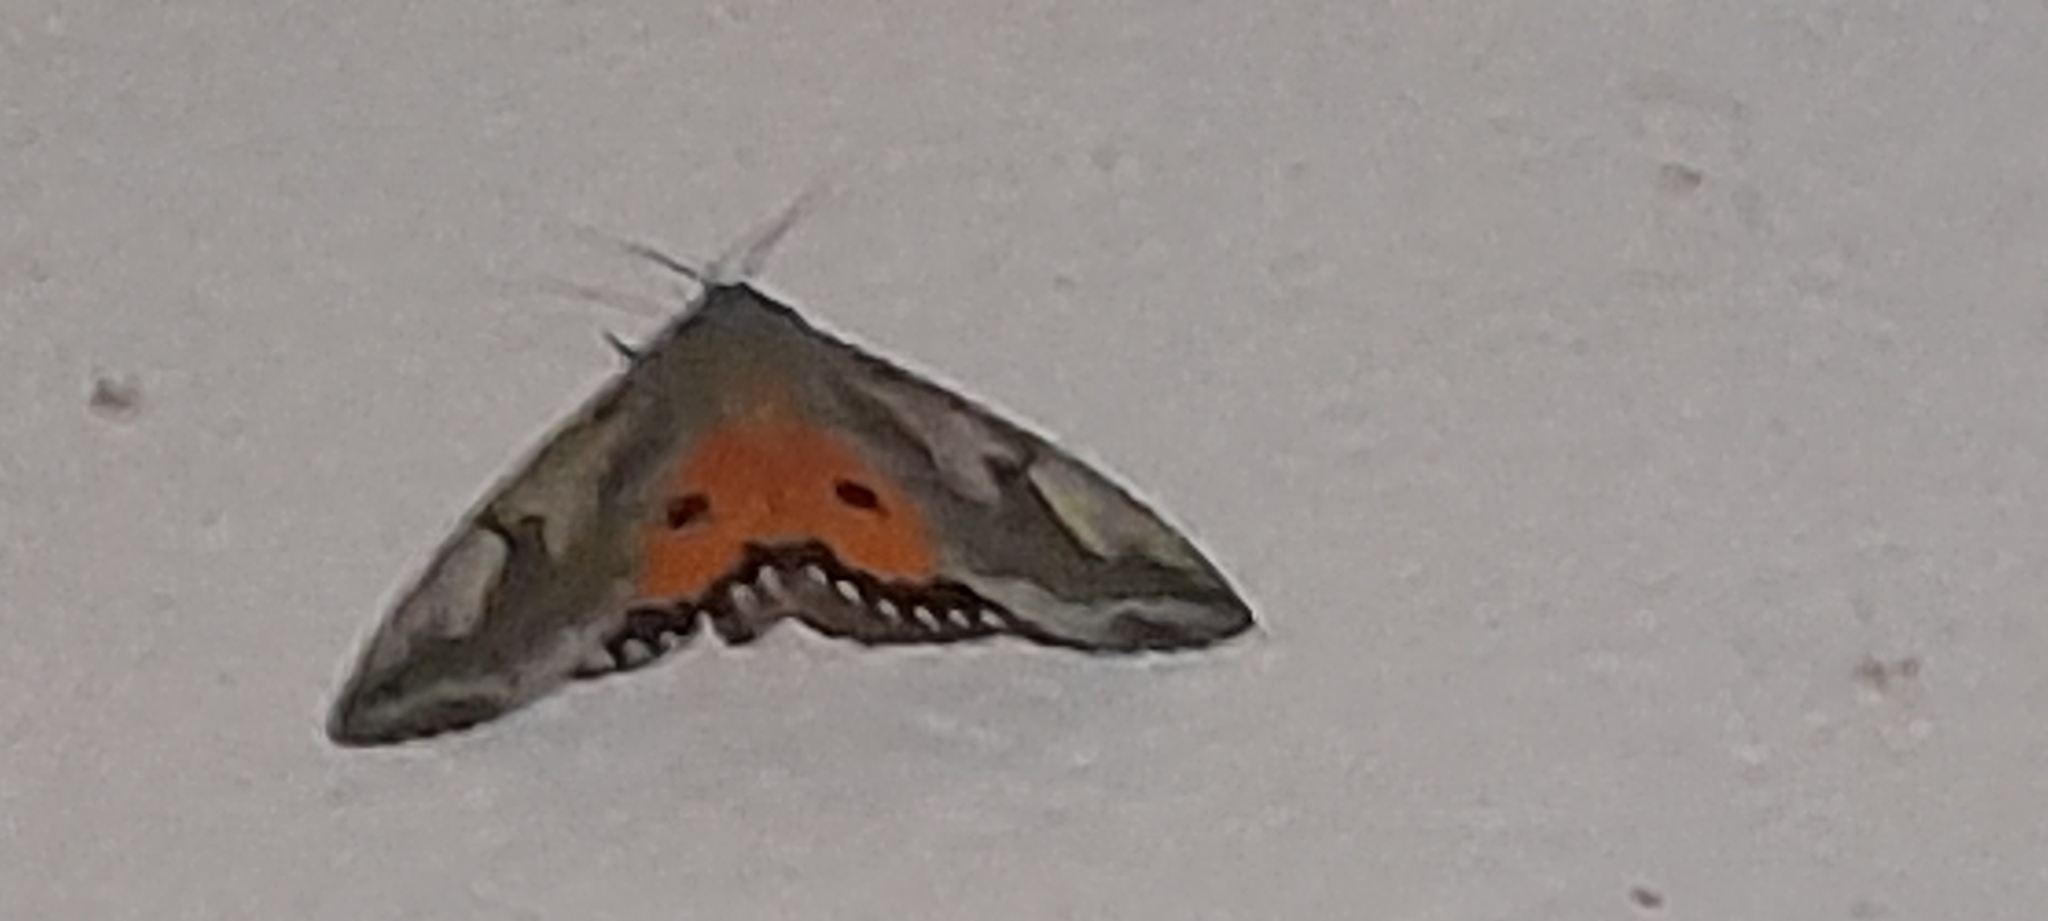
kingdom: Animalia
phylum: Arthropoda
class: Insecta
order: Lepidoptera
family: Erebidae
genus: Eudocima
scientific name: Eudocima materna
